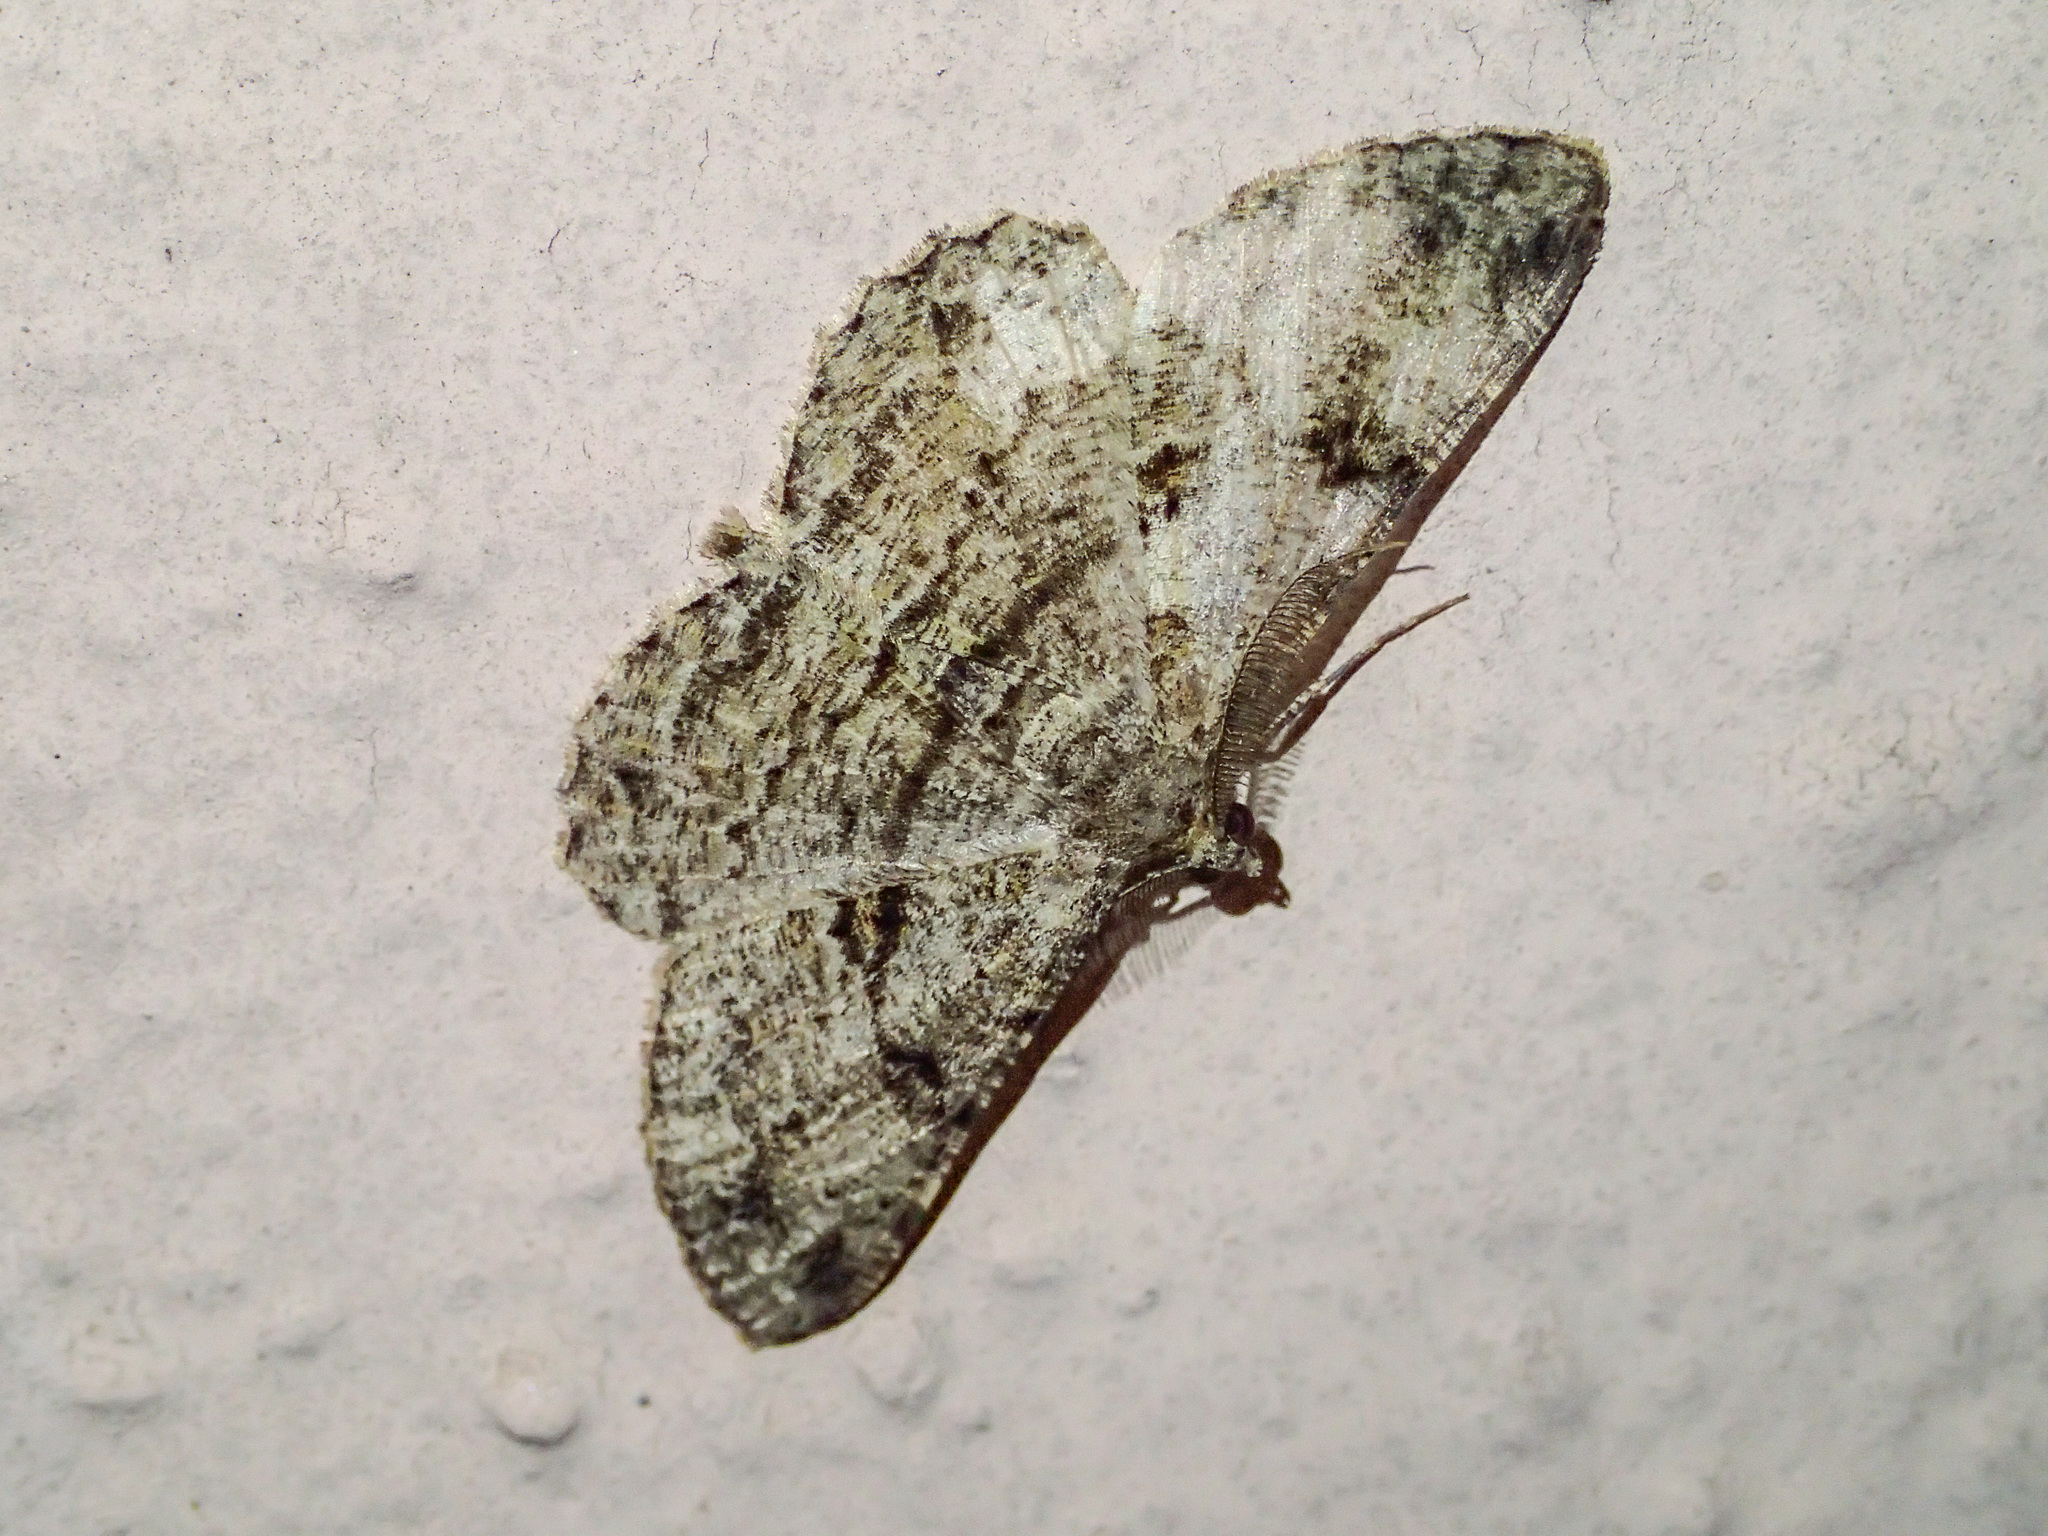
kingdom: Animalia
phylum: Arthropoda
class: Insecta
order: Lepidoptera
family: Geometridae
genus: Peribatodes
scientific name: Peribatodes rhomboidaria
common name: Willow beauty
